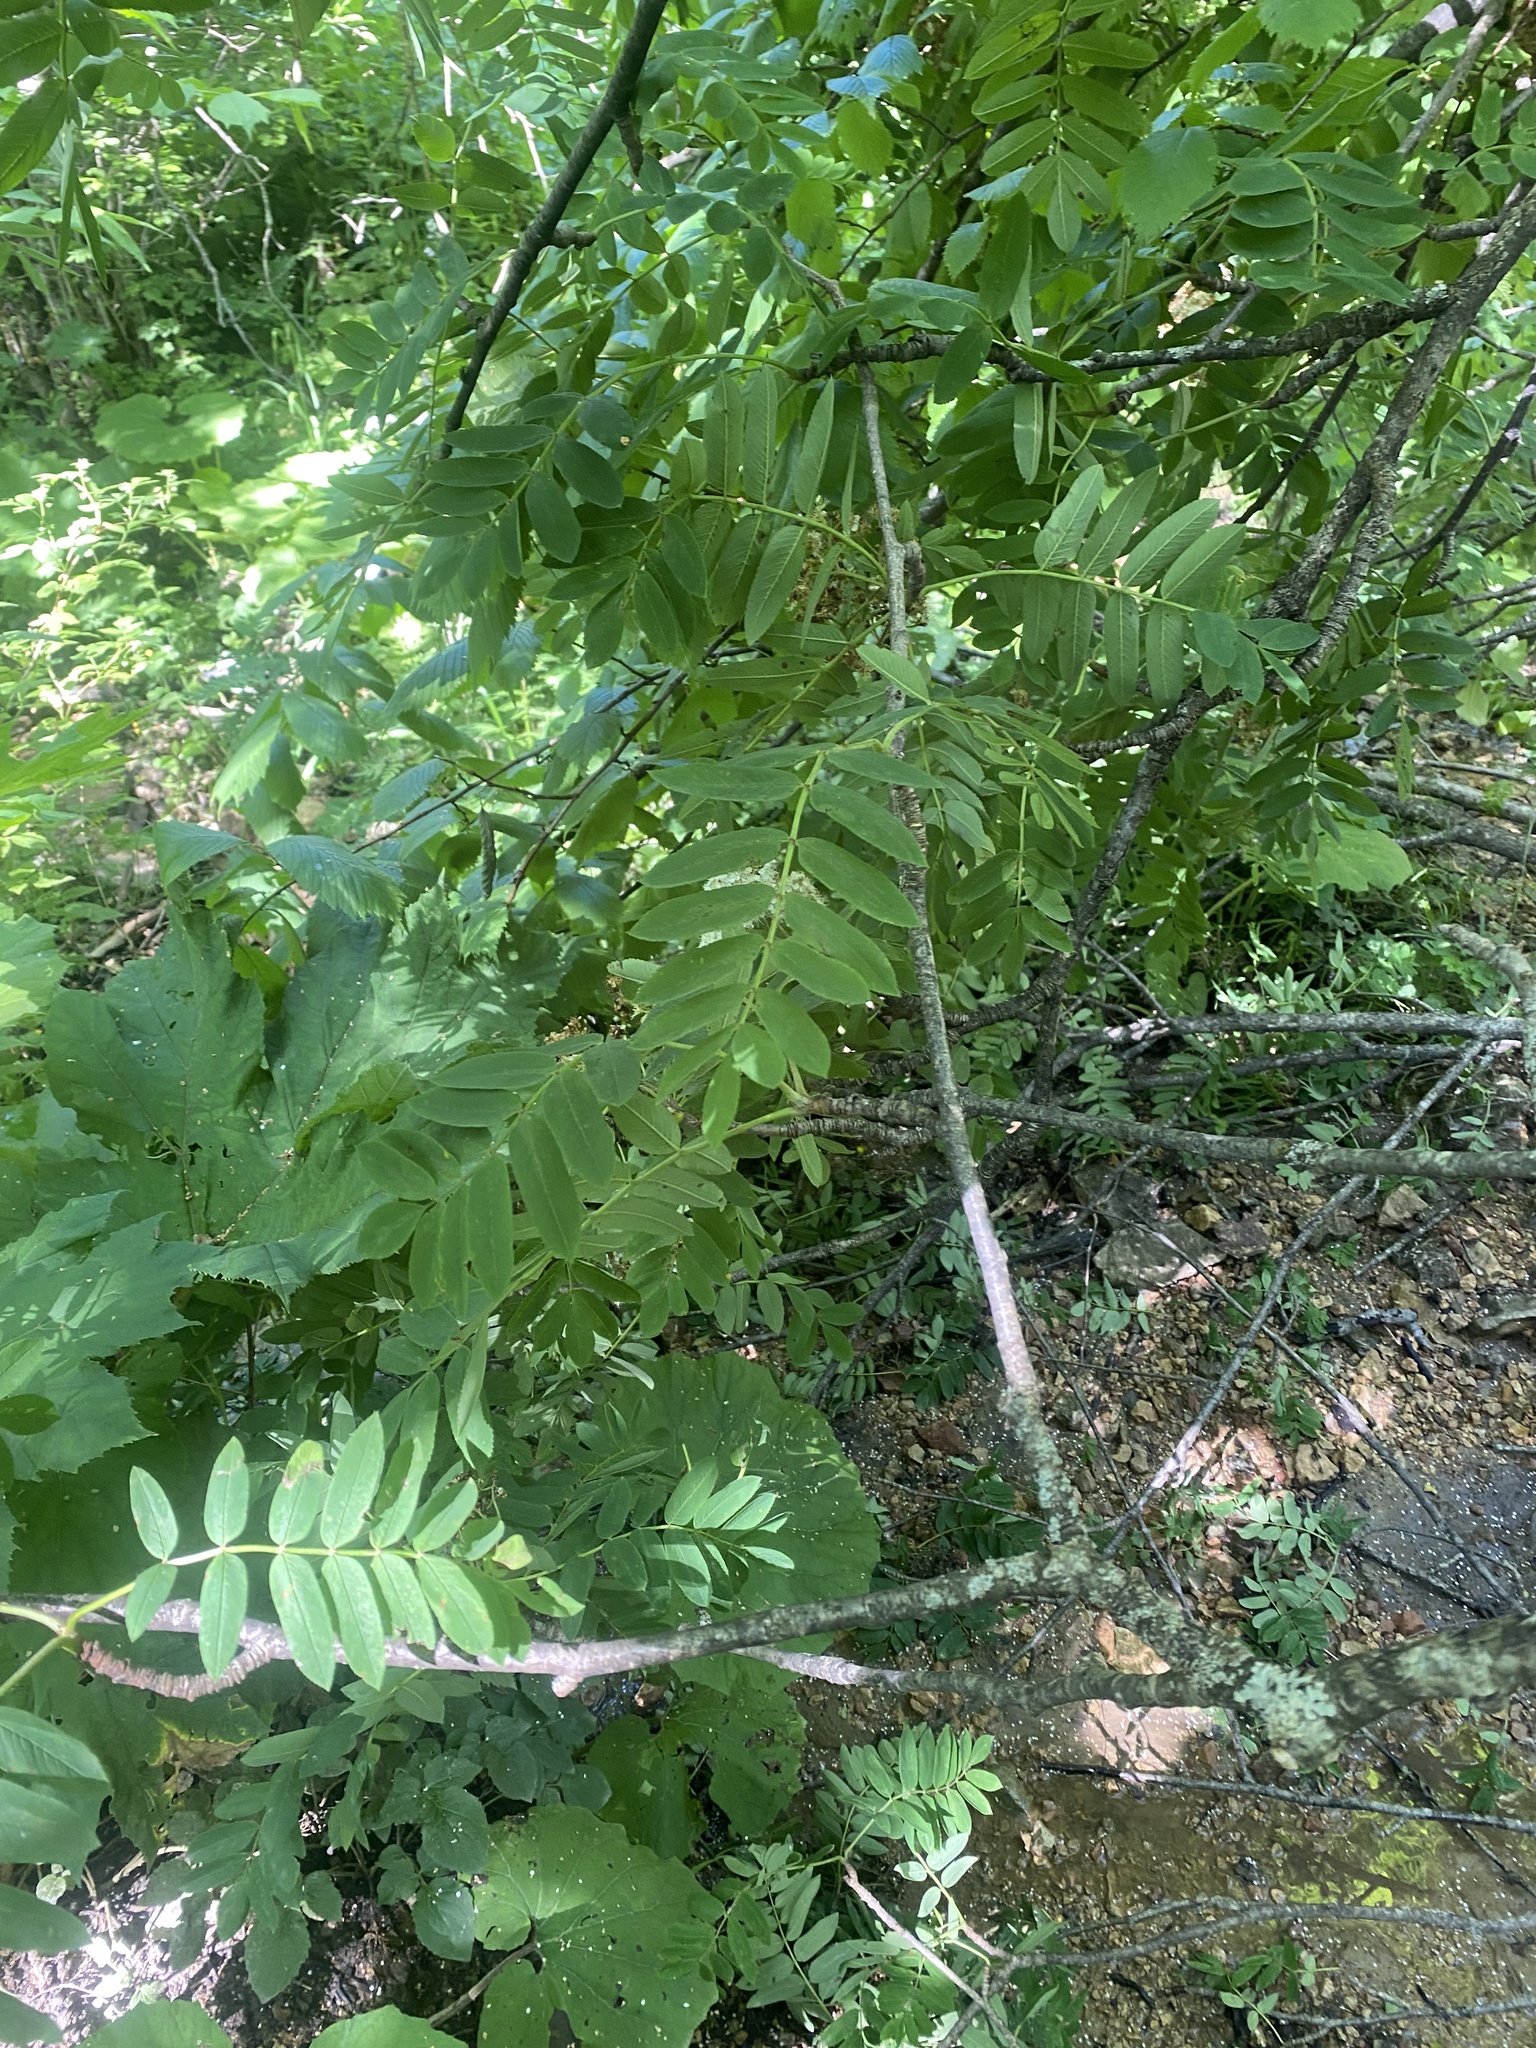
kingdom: Plantae
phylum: Tracheophyta
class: Magnoliopsida
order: Rosales
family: Rosaceae
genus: Sorbus
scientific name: Sorbus aucuparia
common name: Rowan
